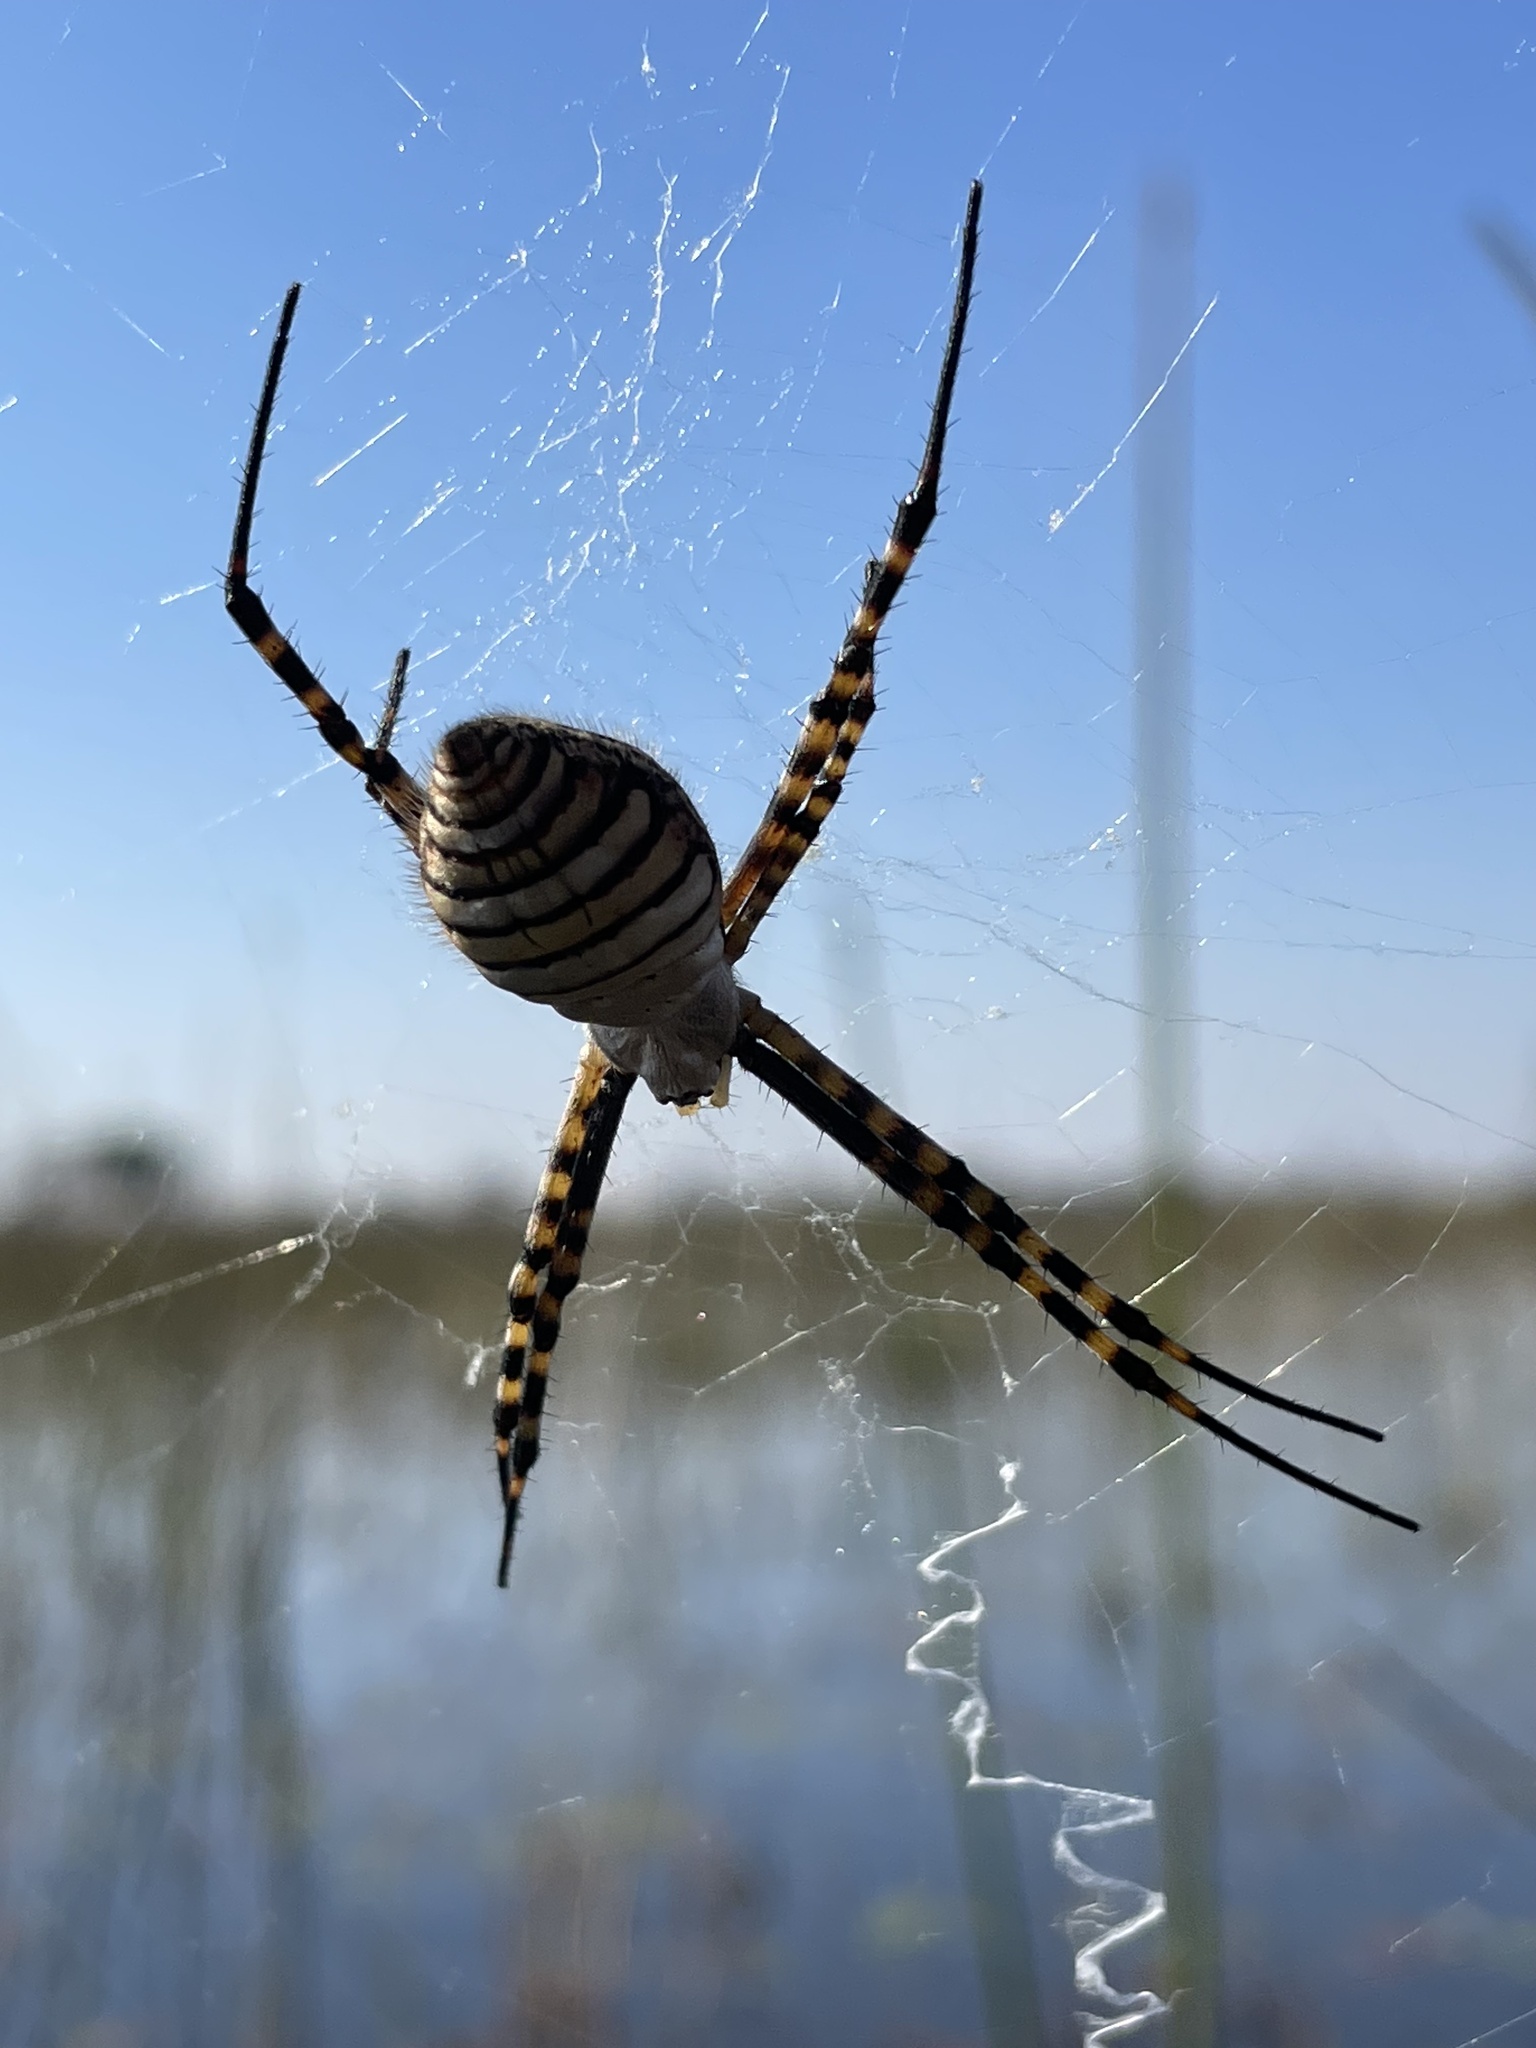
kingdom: Animalia
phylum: Arthropoda
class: Arachnida
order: Araneae
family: Araneidae
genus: Argiope
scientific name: Argiope trifasciata
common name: Banded garden spider
